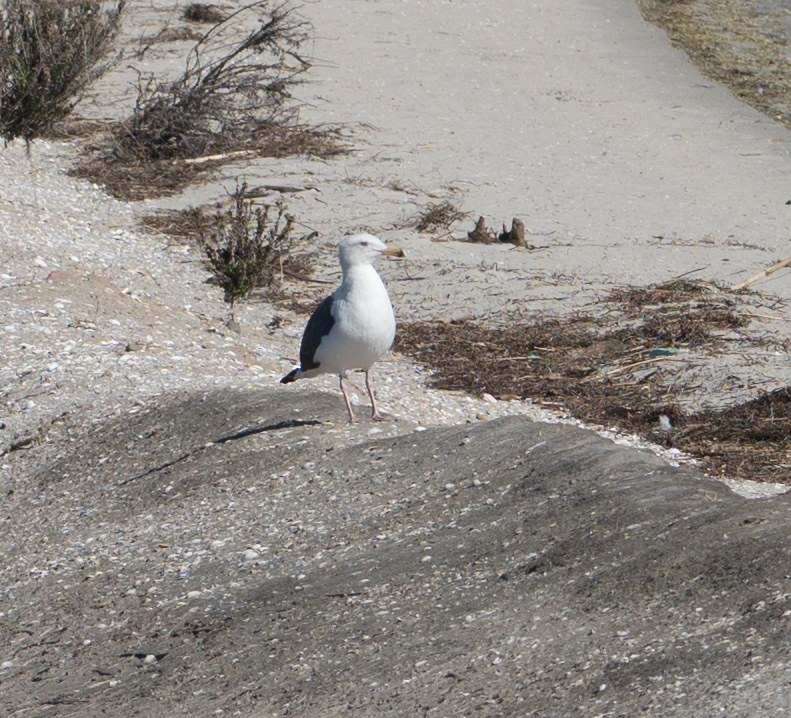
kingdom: Animalia
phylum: Chordata
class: Aves
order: Charadriiformes
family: Laridae
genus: Larus
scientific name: Larus occidentalis
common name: Western gull
